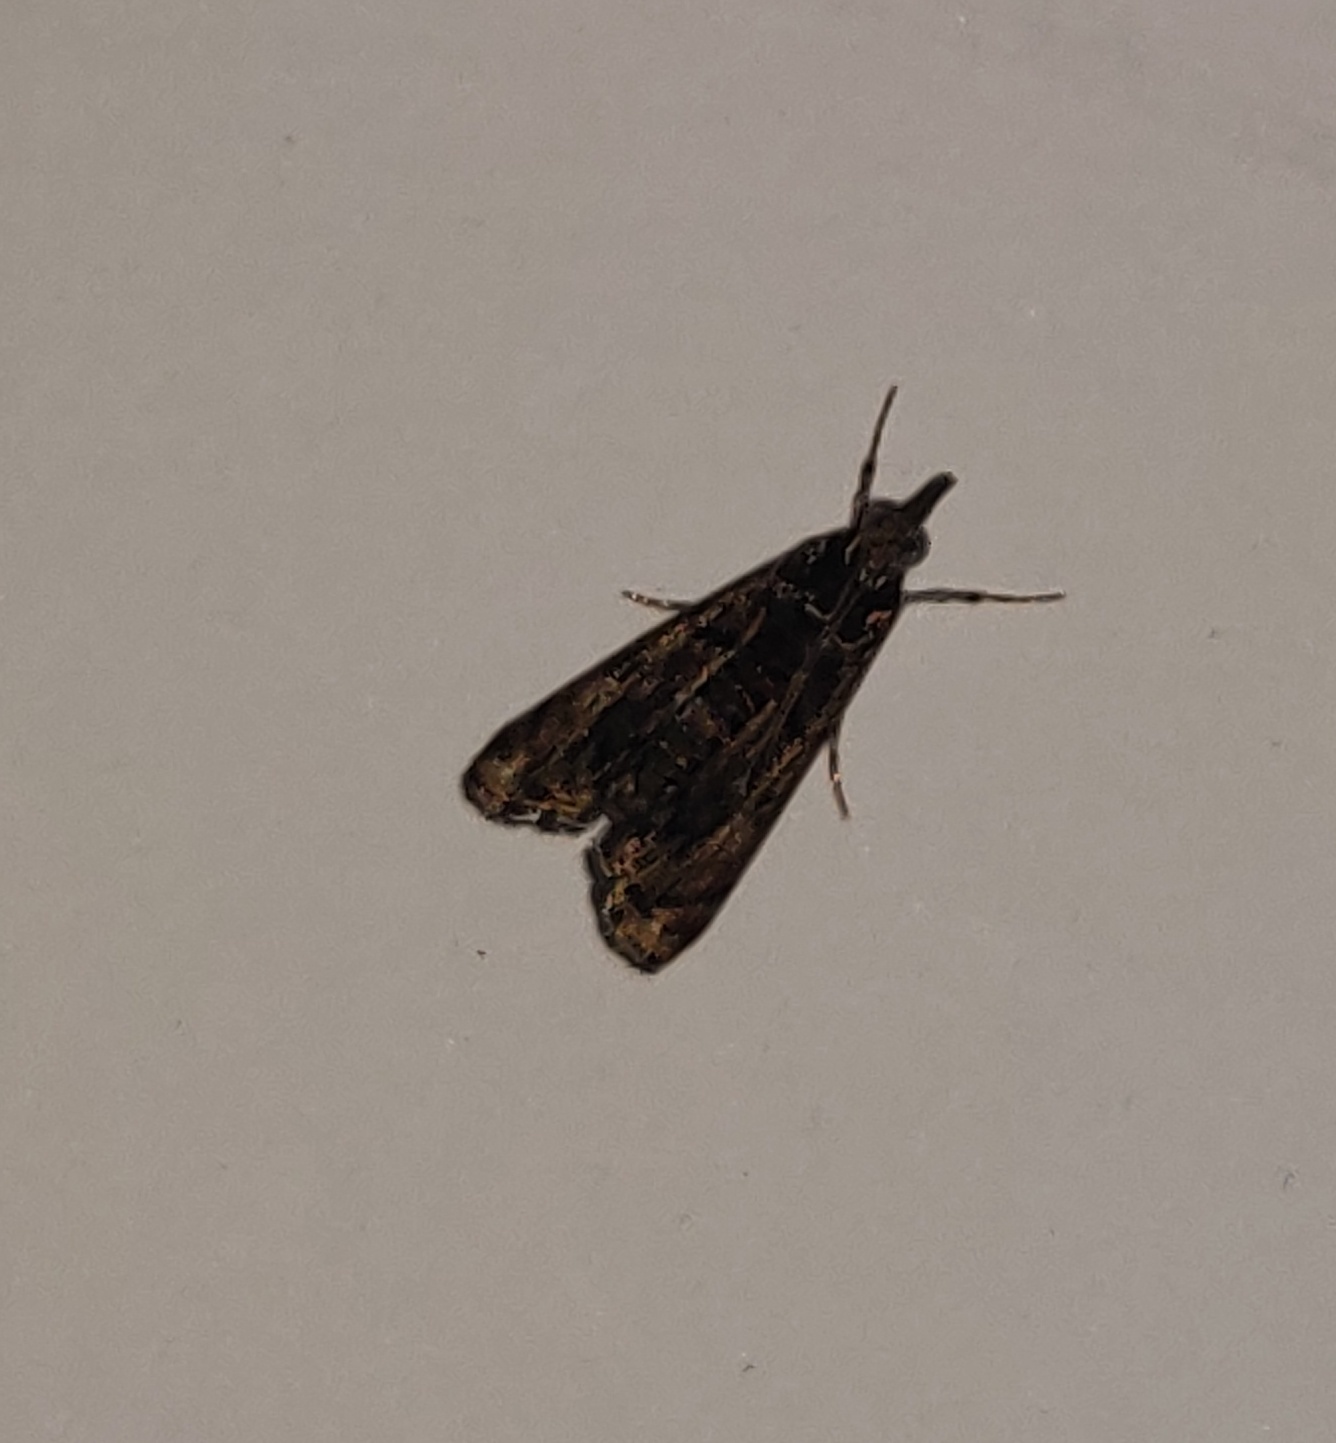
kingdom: Animalia
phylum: Arthropoda
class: Insecta
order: Lepidoptera
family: Crambidae
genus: Noorda
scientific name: Noorda blitealis
